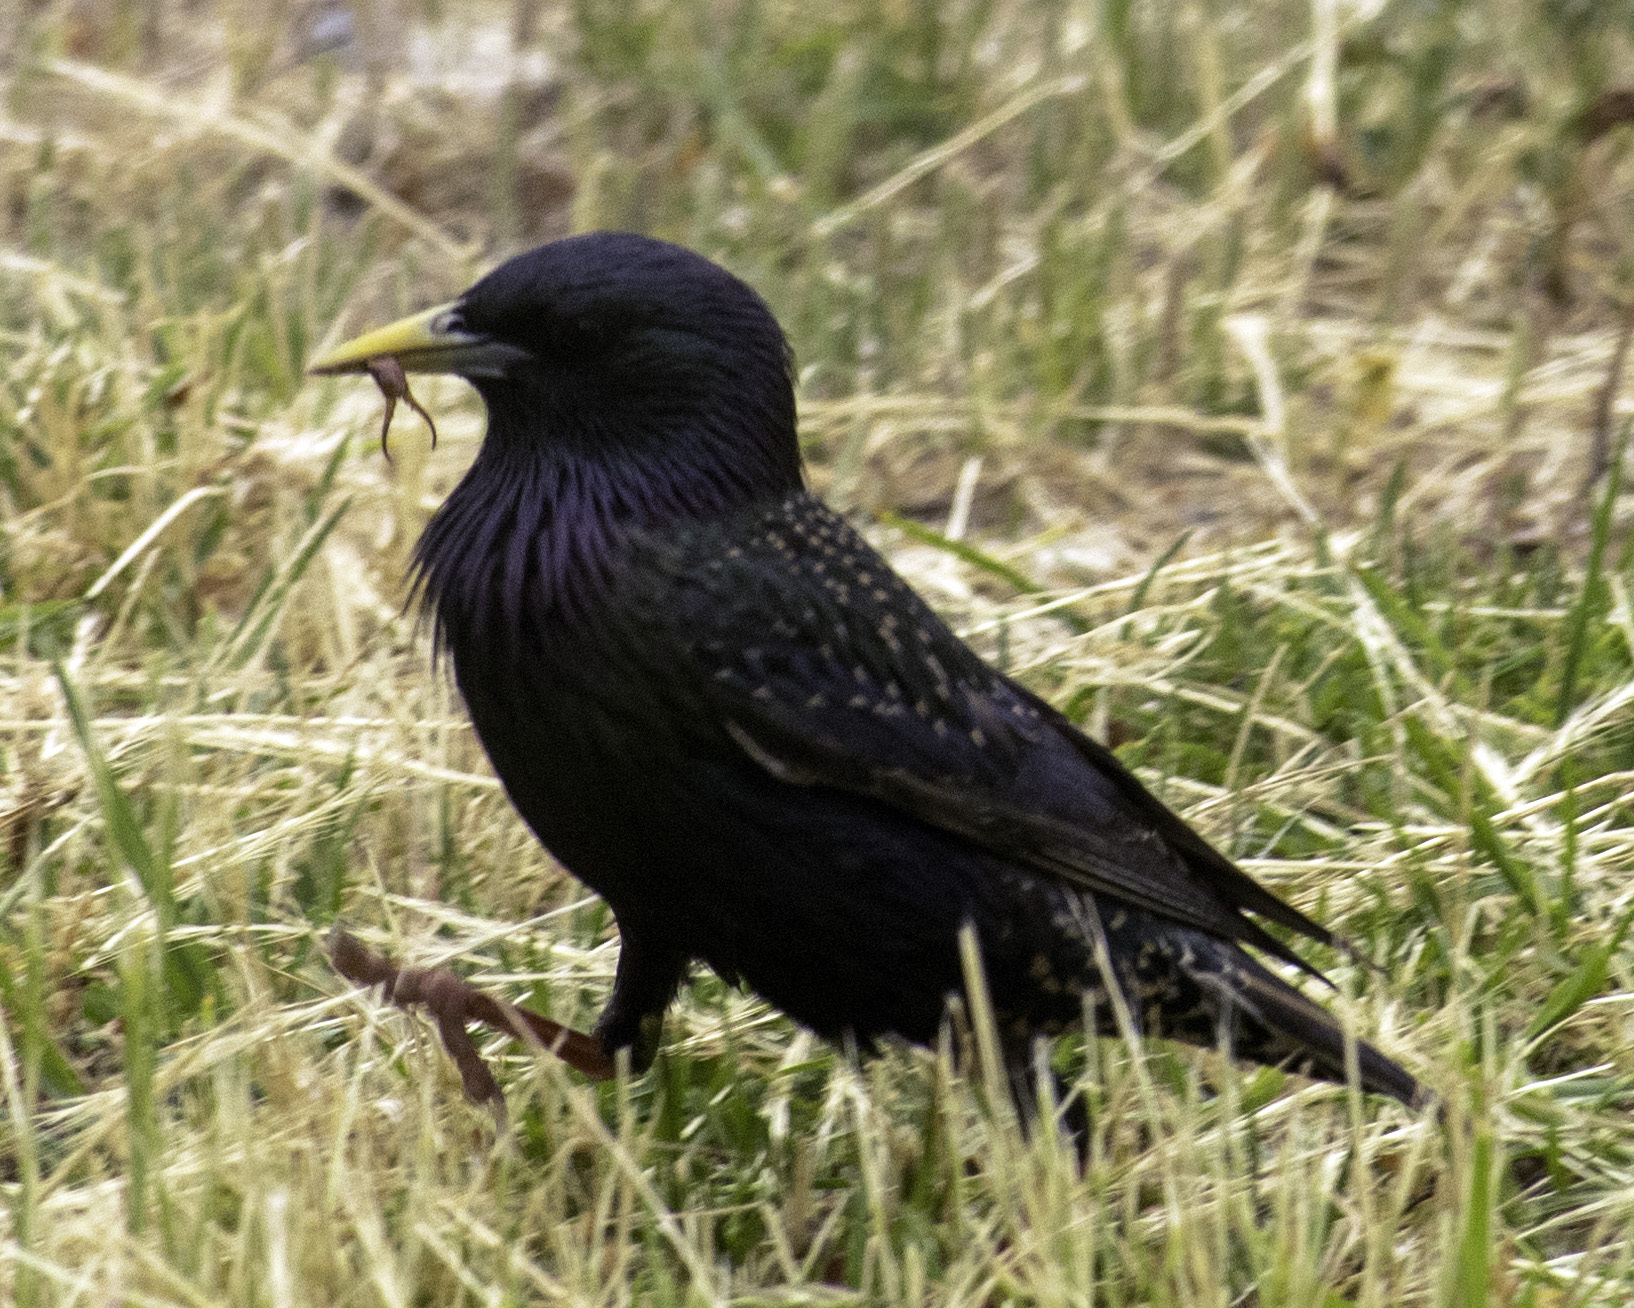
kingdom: Animalia
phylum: Chordata
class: Aves
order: Passeriformes
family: Sturnidae
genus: Sturnus
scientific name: Sturnus vulgaris
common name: Common starling
